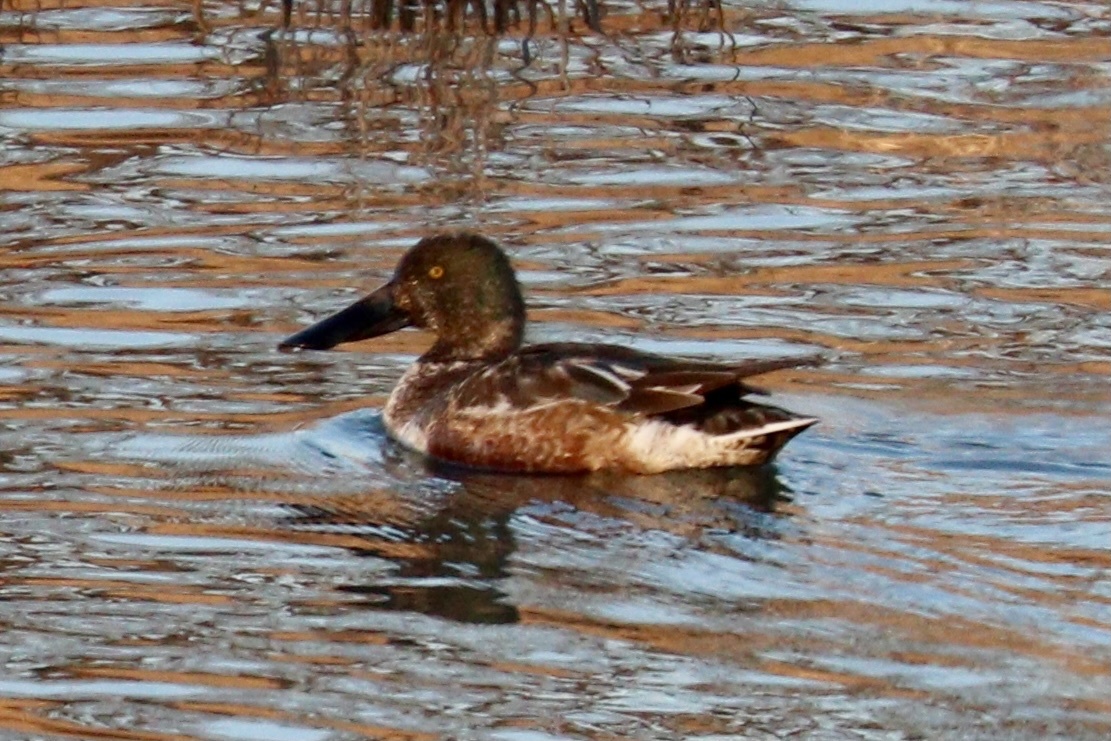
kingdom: Animalia
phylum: Chordata
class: Aves
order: Anseriformes
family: Anatidae
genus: Spatula
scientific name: Spatula clypeata
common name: Northern shoveler
